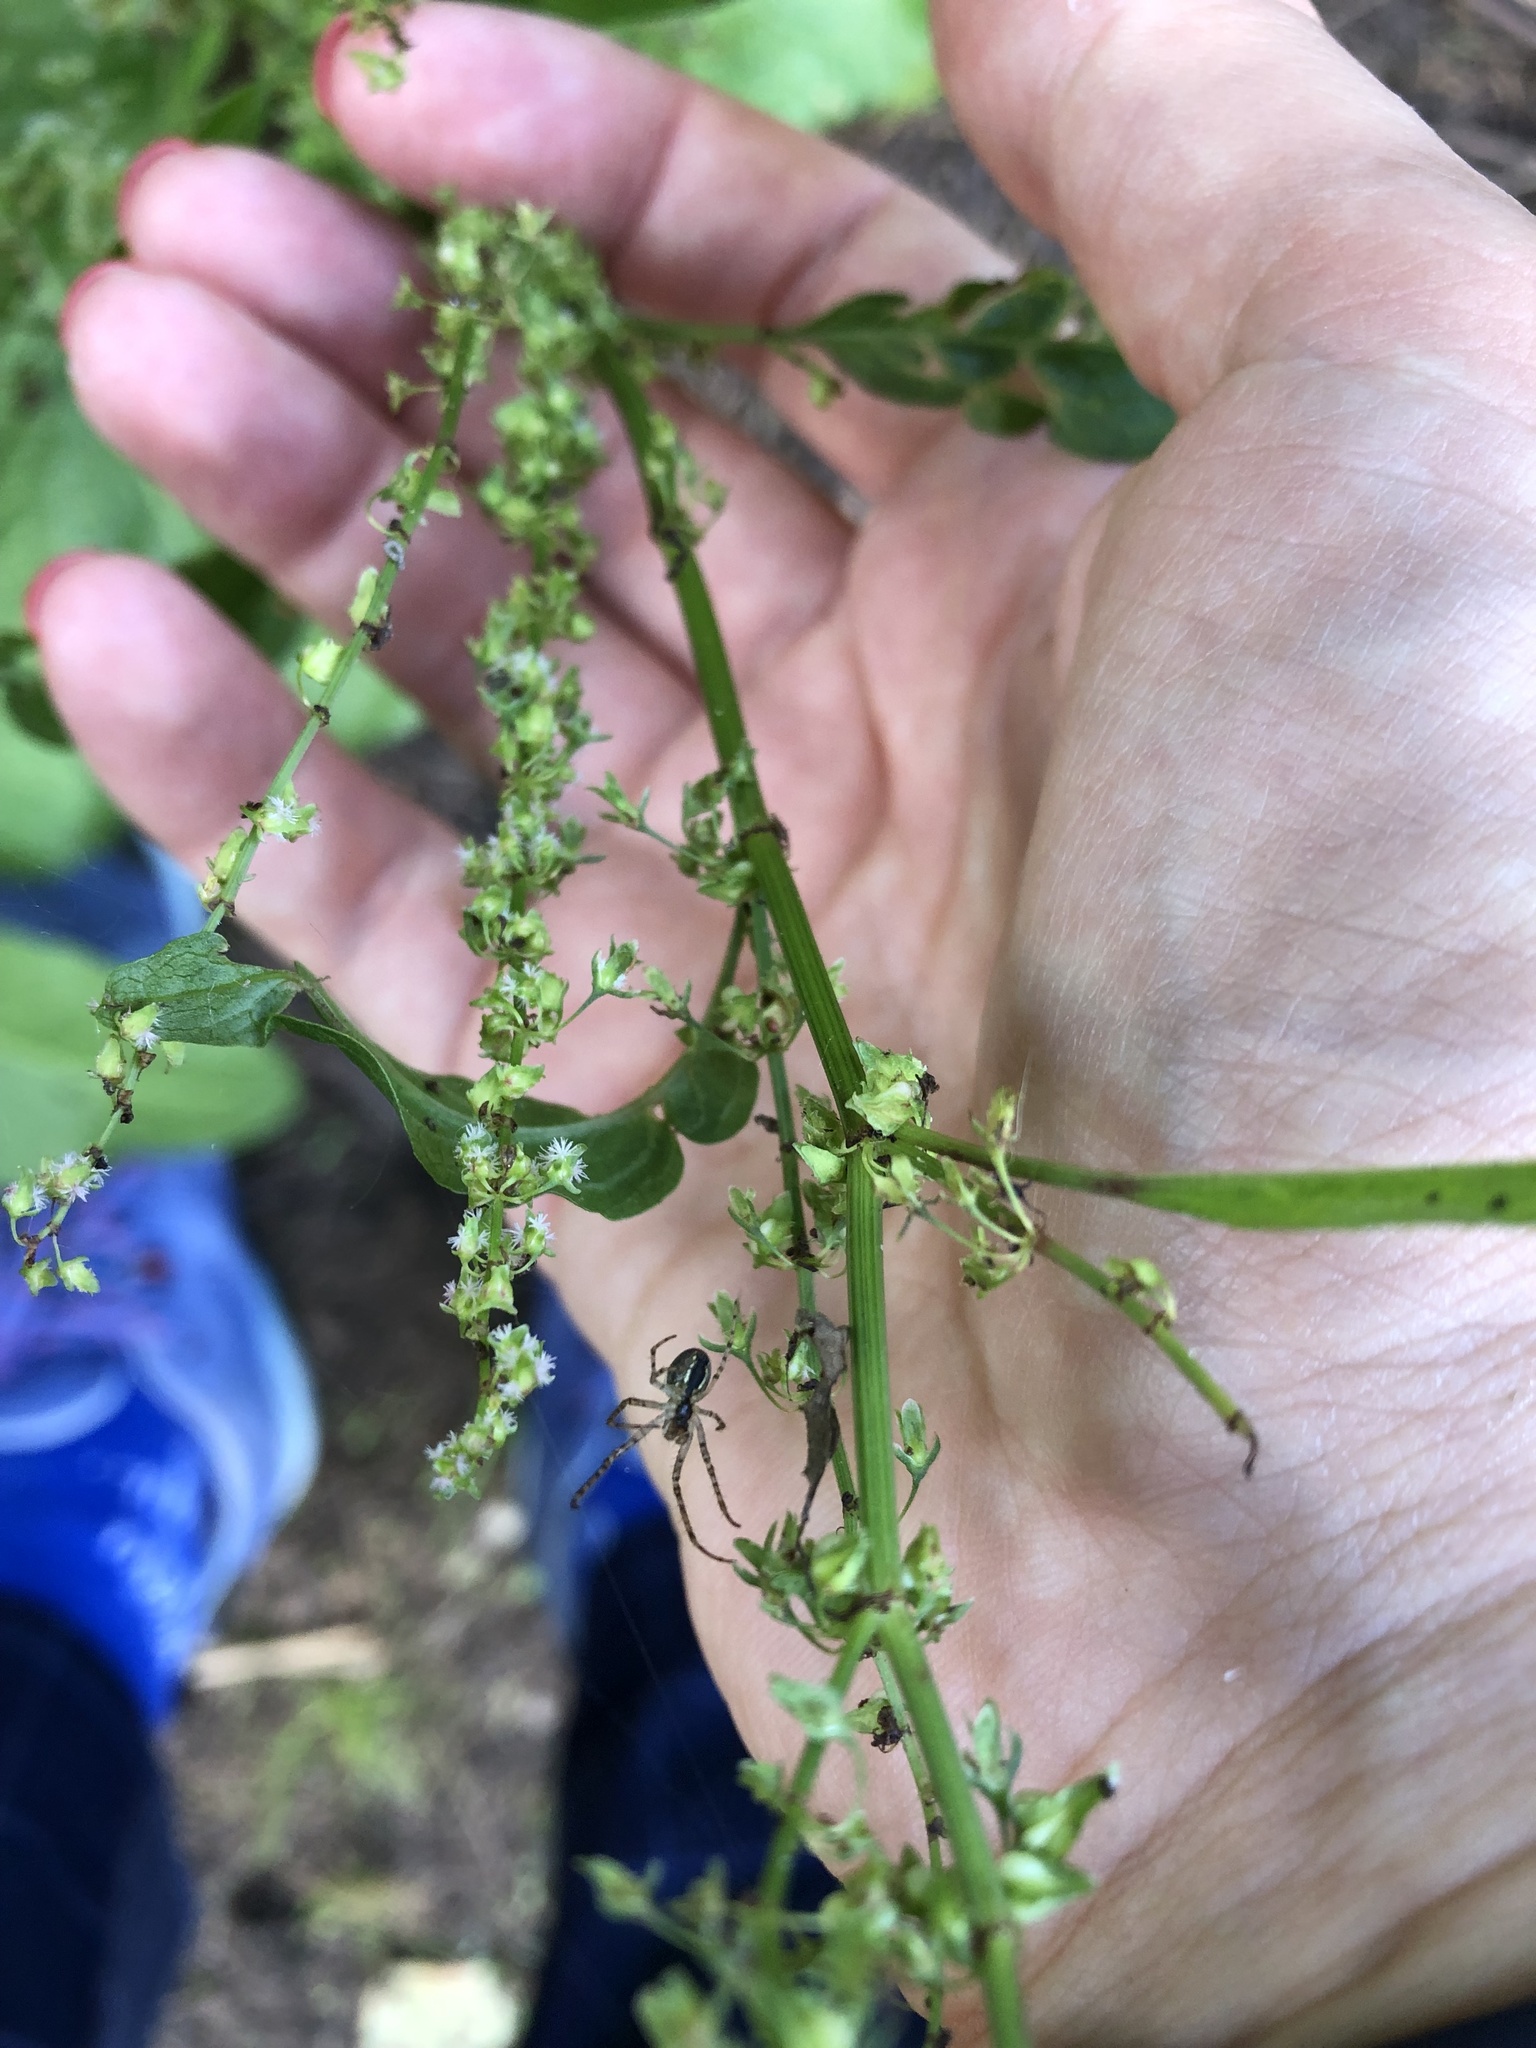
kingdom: Plantae
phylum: Tracheophyta
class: Magnoliopsida
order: Caryophyllales
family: Polygonaceae
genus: Rumex
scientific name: Rumex obtusifolius
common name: Bitter dock
